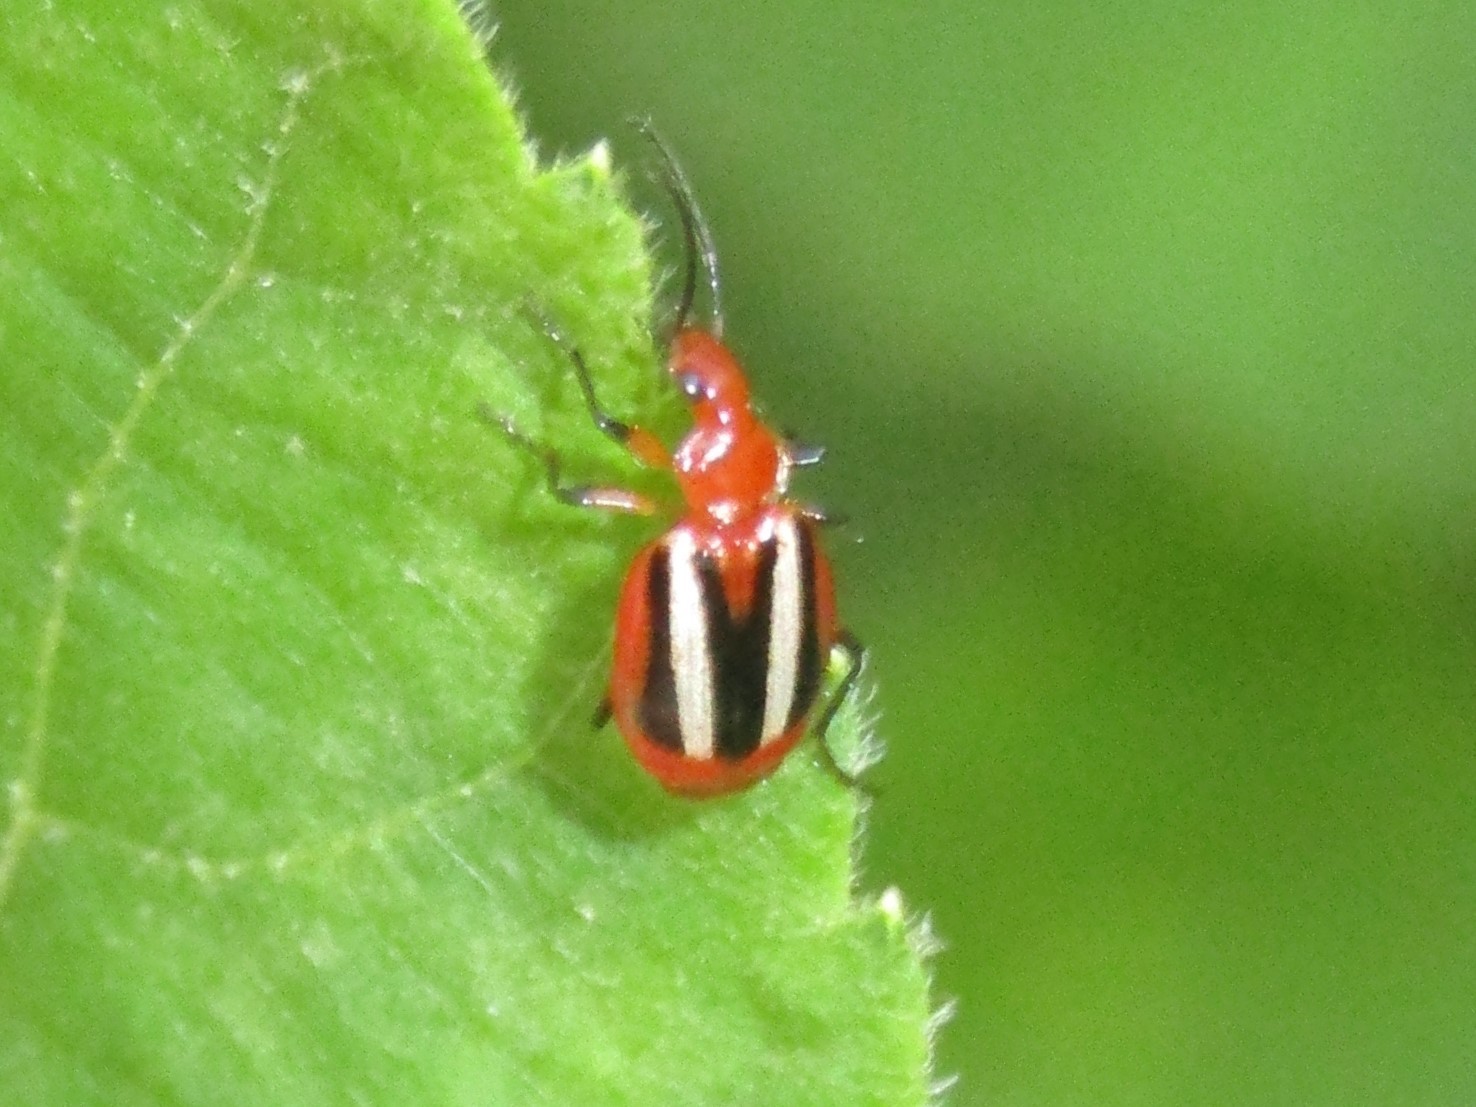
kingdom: Animalia
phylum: Arthropoda
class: Insecta
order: Coleoptera
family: Carabidae
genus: Lebia
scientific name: Lebia vittata
